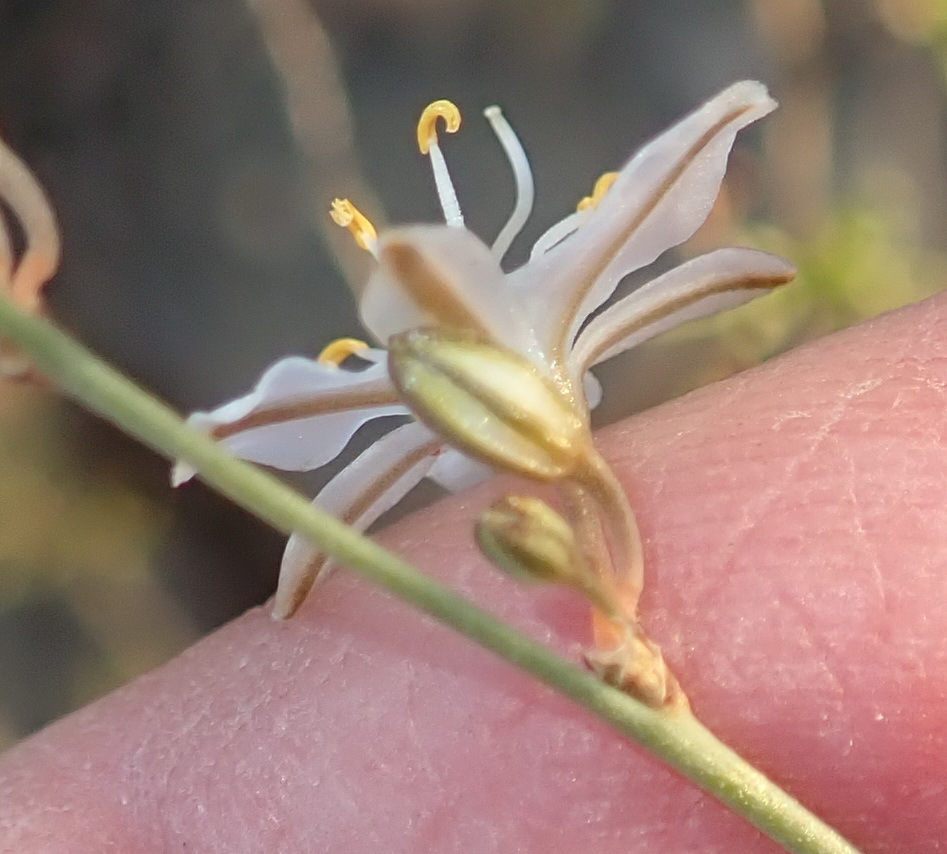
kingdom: Plantae
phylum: Tracheophyta
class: Liliopsida
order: Asparagales
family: Asparagaceae
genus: Chlorophytum
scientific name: Chlorophytum crispum
